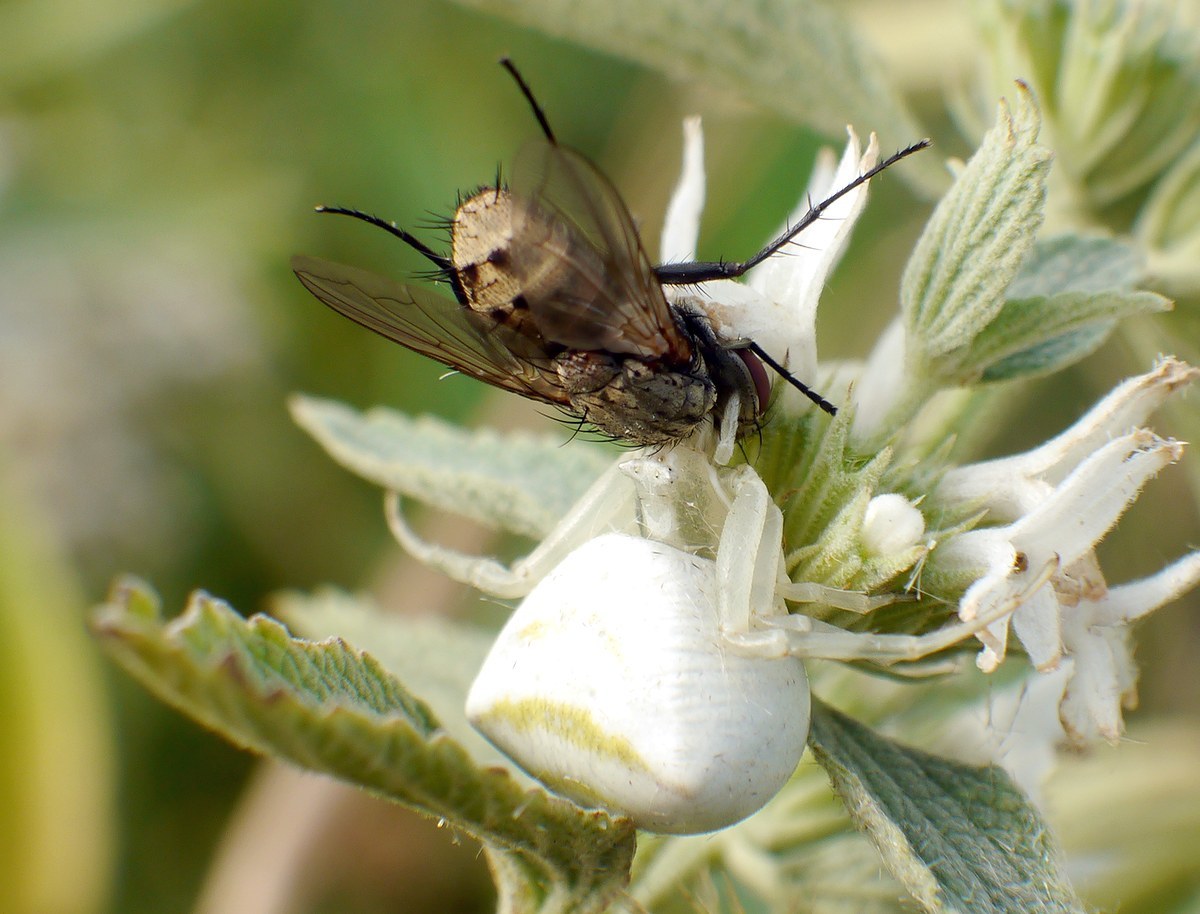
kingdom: Animalia
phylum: Arthropoda
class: Arachnida
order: Araneae
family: Thomisidae
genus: Thomisus
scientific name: Thomisus onustus
